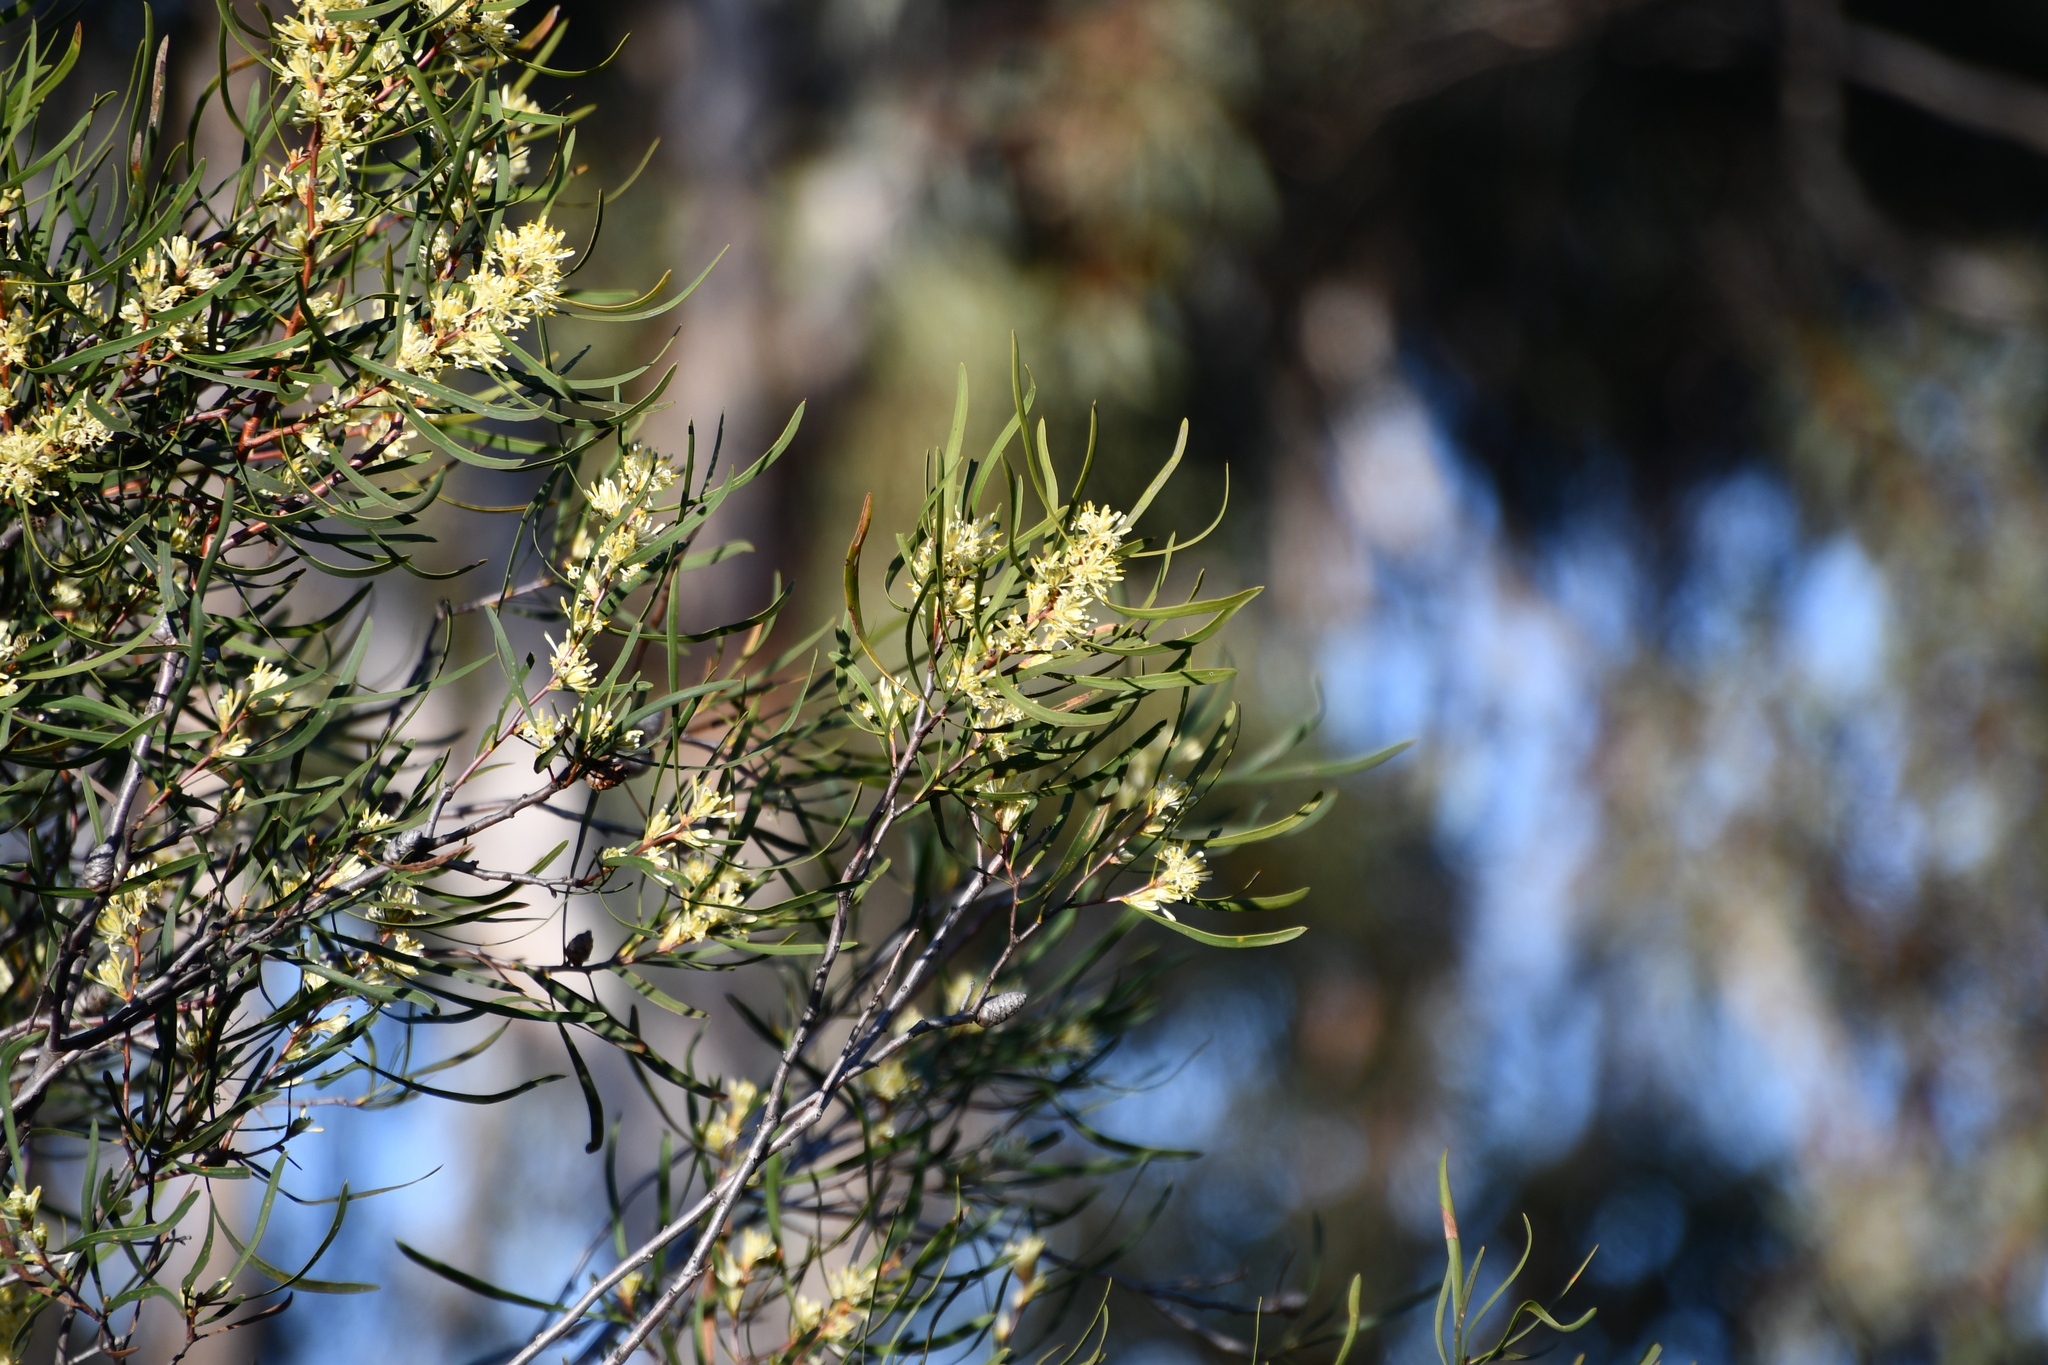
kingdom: Plantae
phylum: Tracheophyta
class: Magnoliopsida
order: Proteales
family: Proteaceae
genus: Petrophile
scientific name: Petrophile heterophylla
